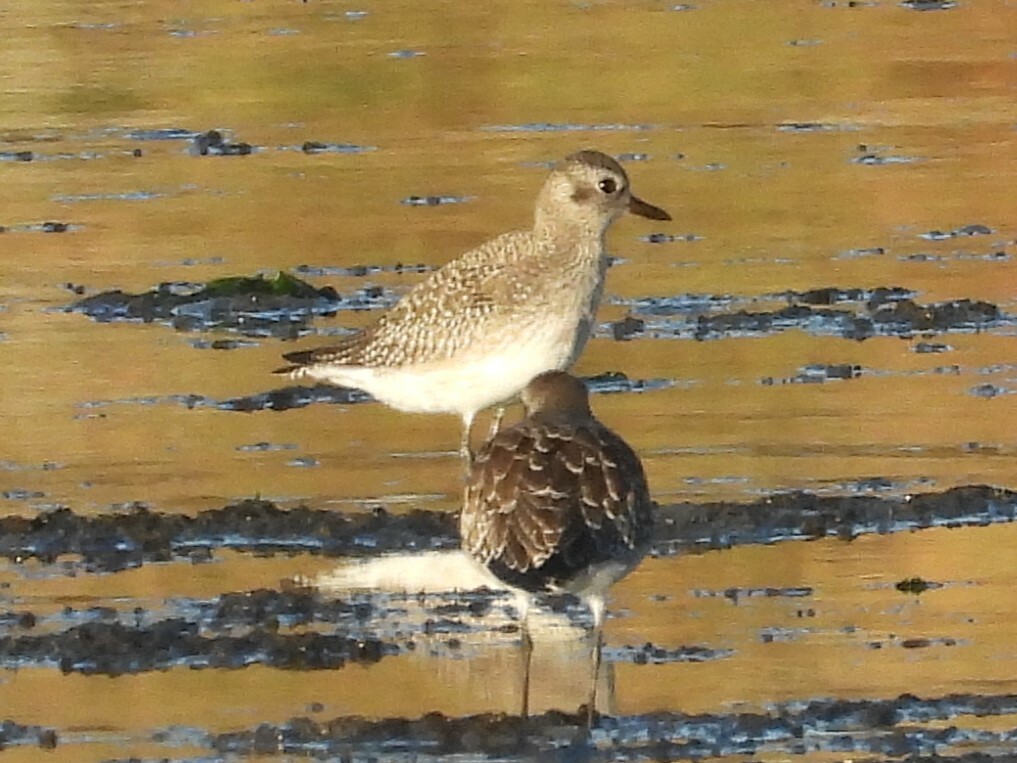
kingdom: Animalia
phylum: Chordata
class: Aves
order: Charadriiformes
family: Charadriidae
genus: Pluvialis
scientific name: Pluvialis squatarola
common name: Grey plover
